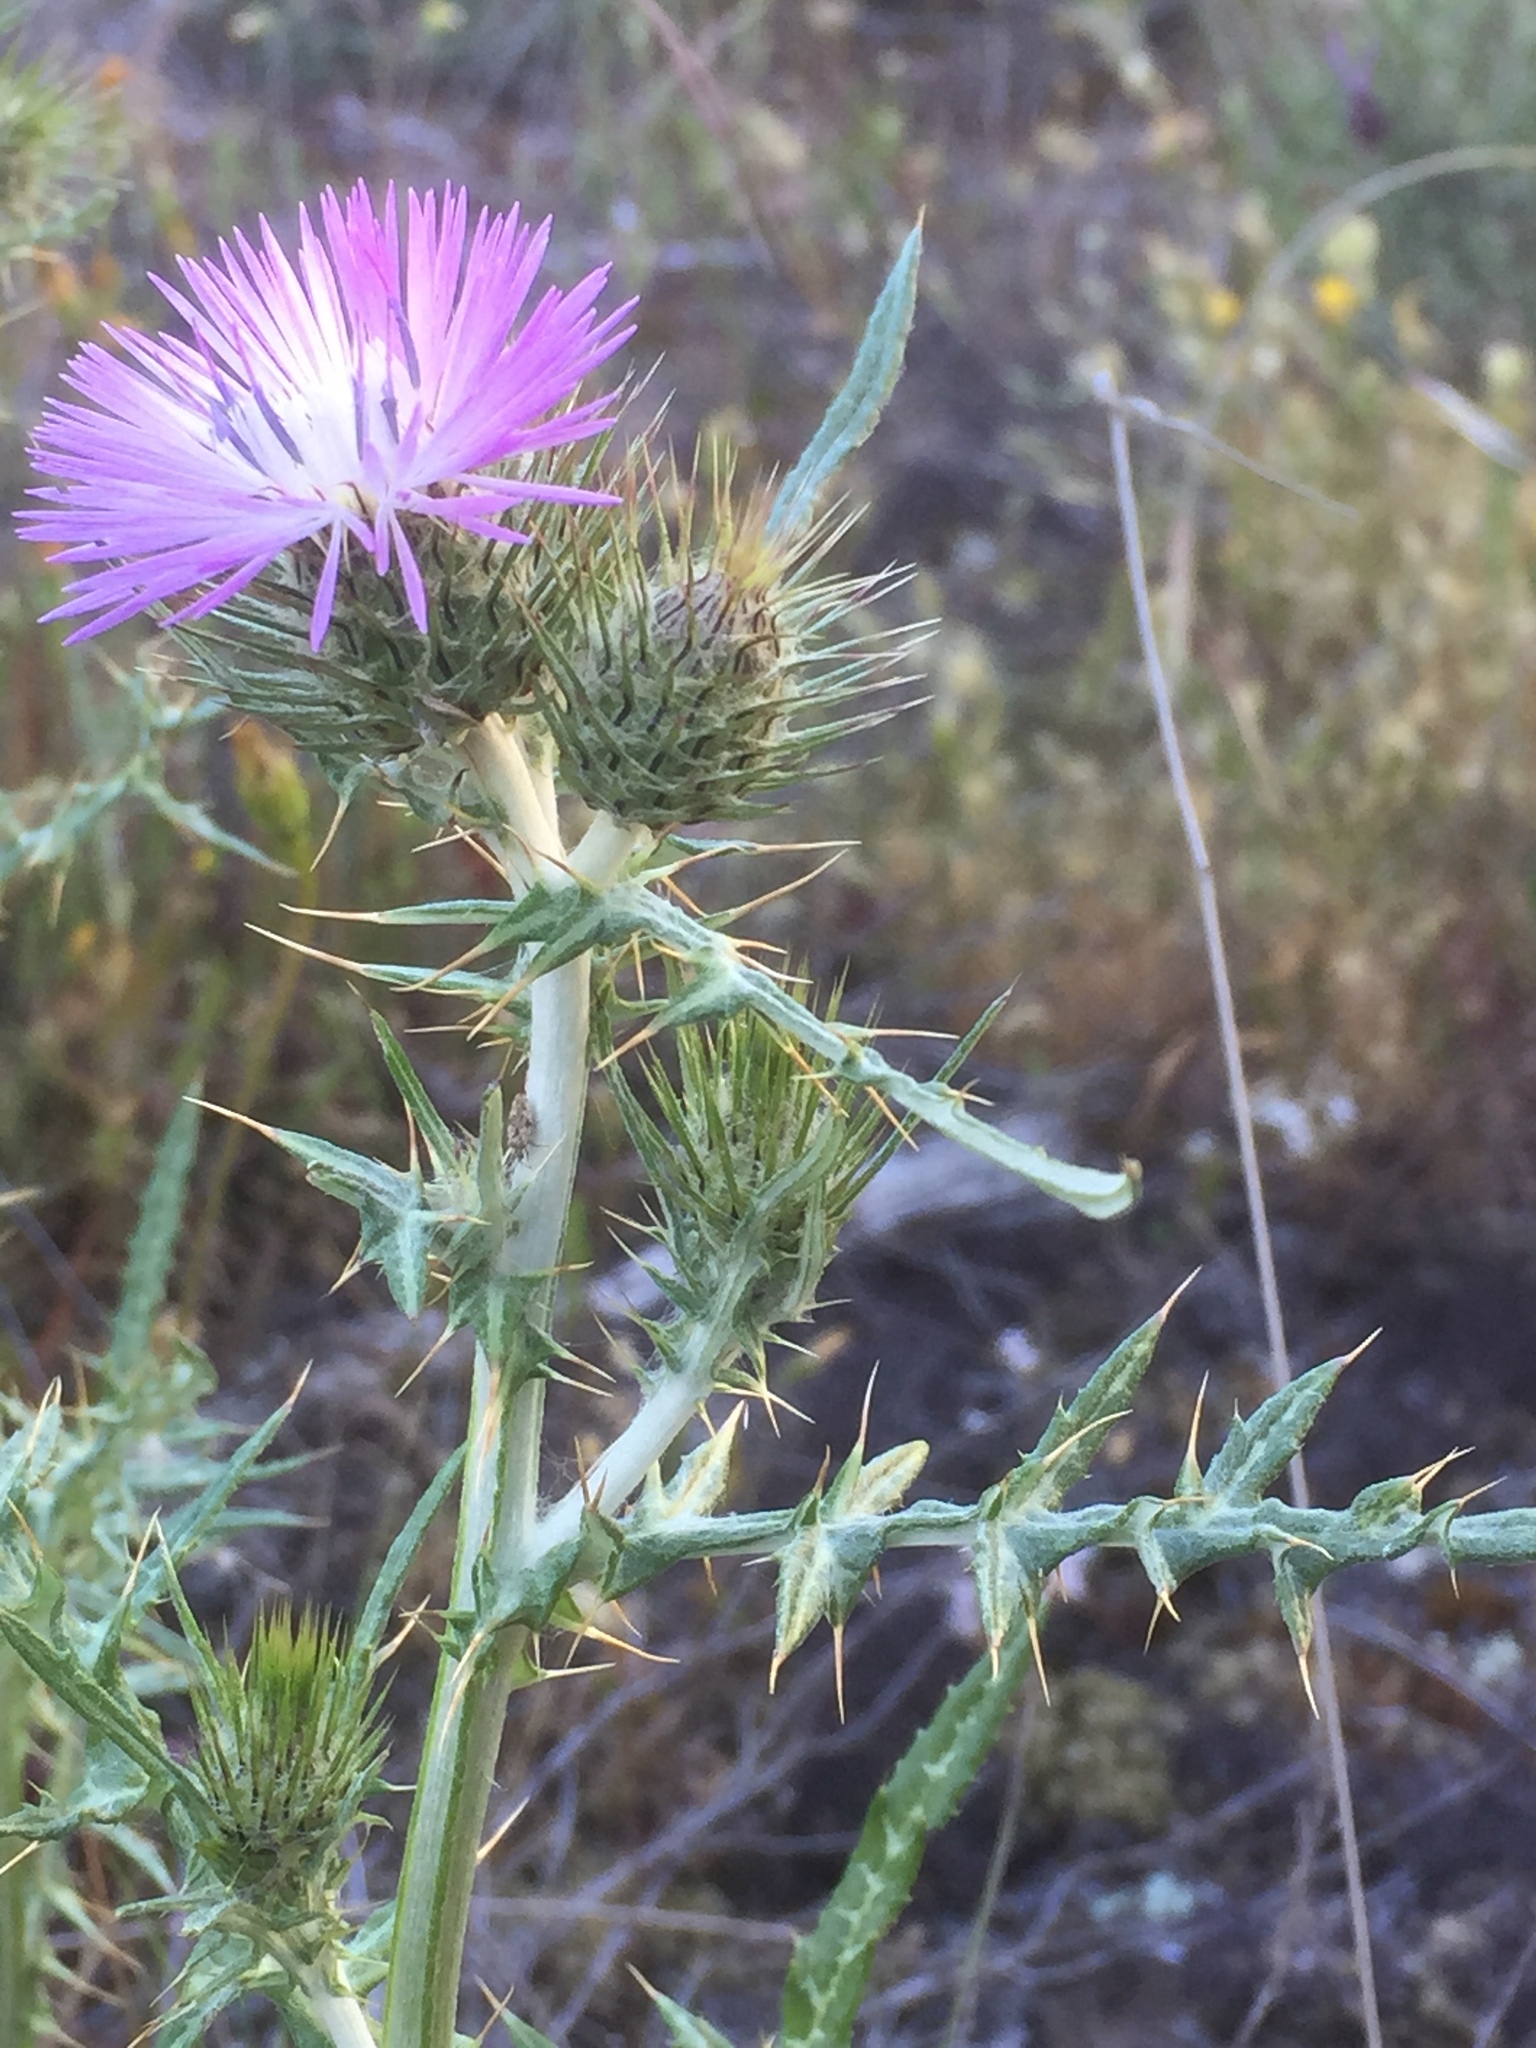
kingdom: Plantae
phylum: Tracheophyta
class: Magnoliopsida
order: Asterales
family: Asteraceae
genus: Galactites
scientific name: Galactites tomentosa
